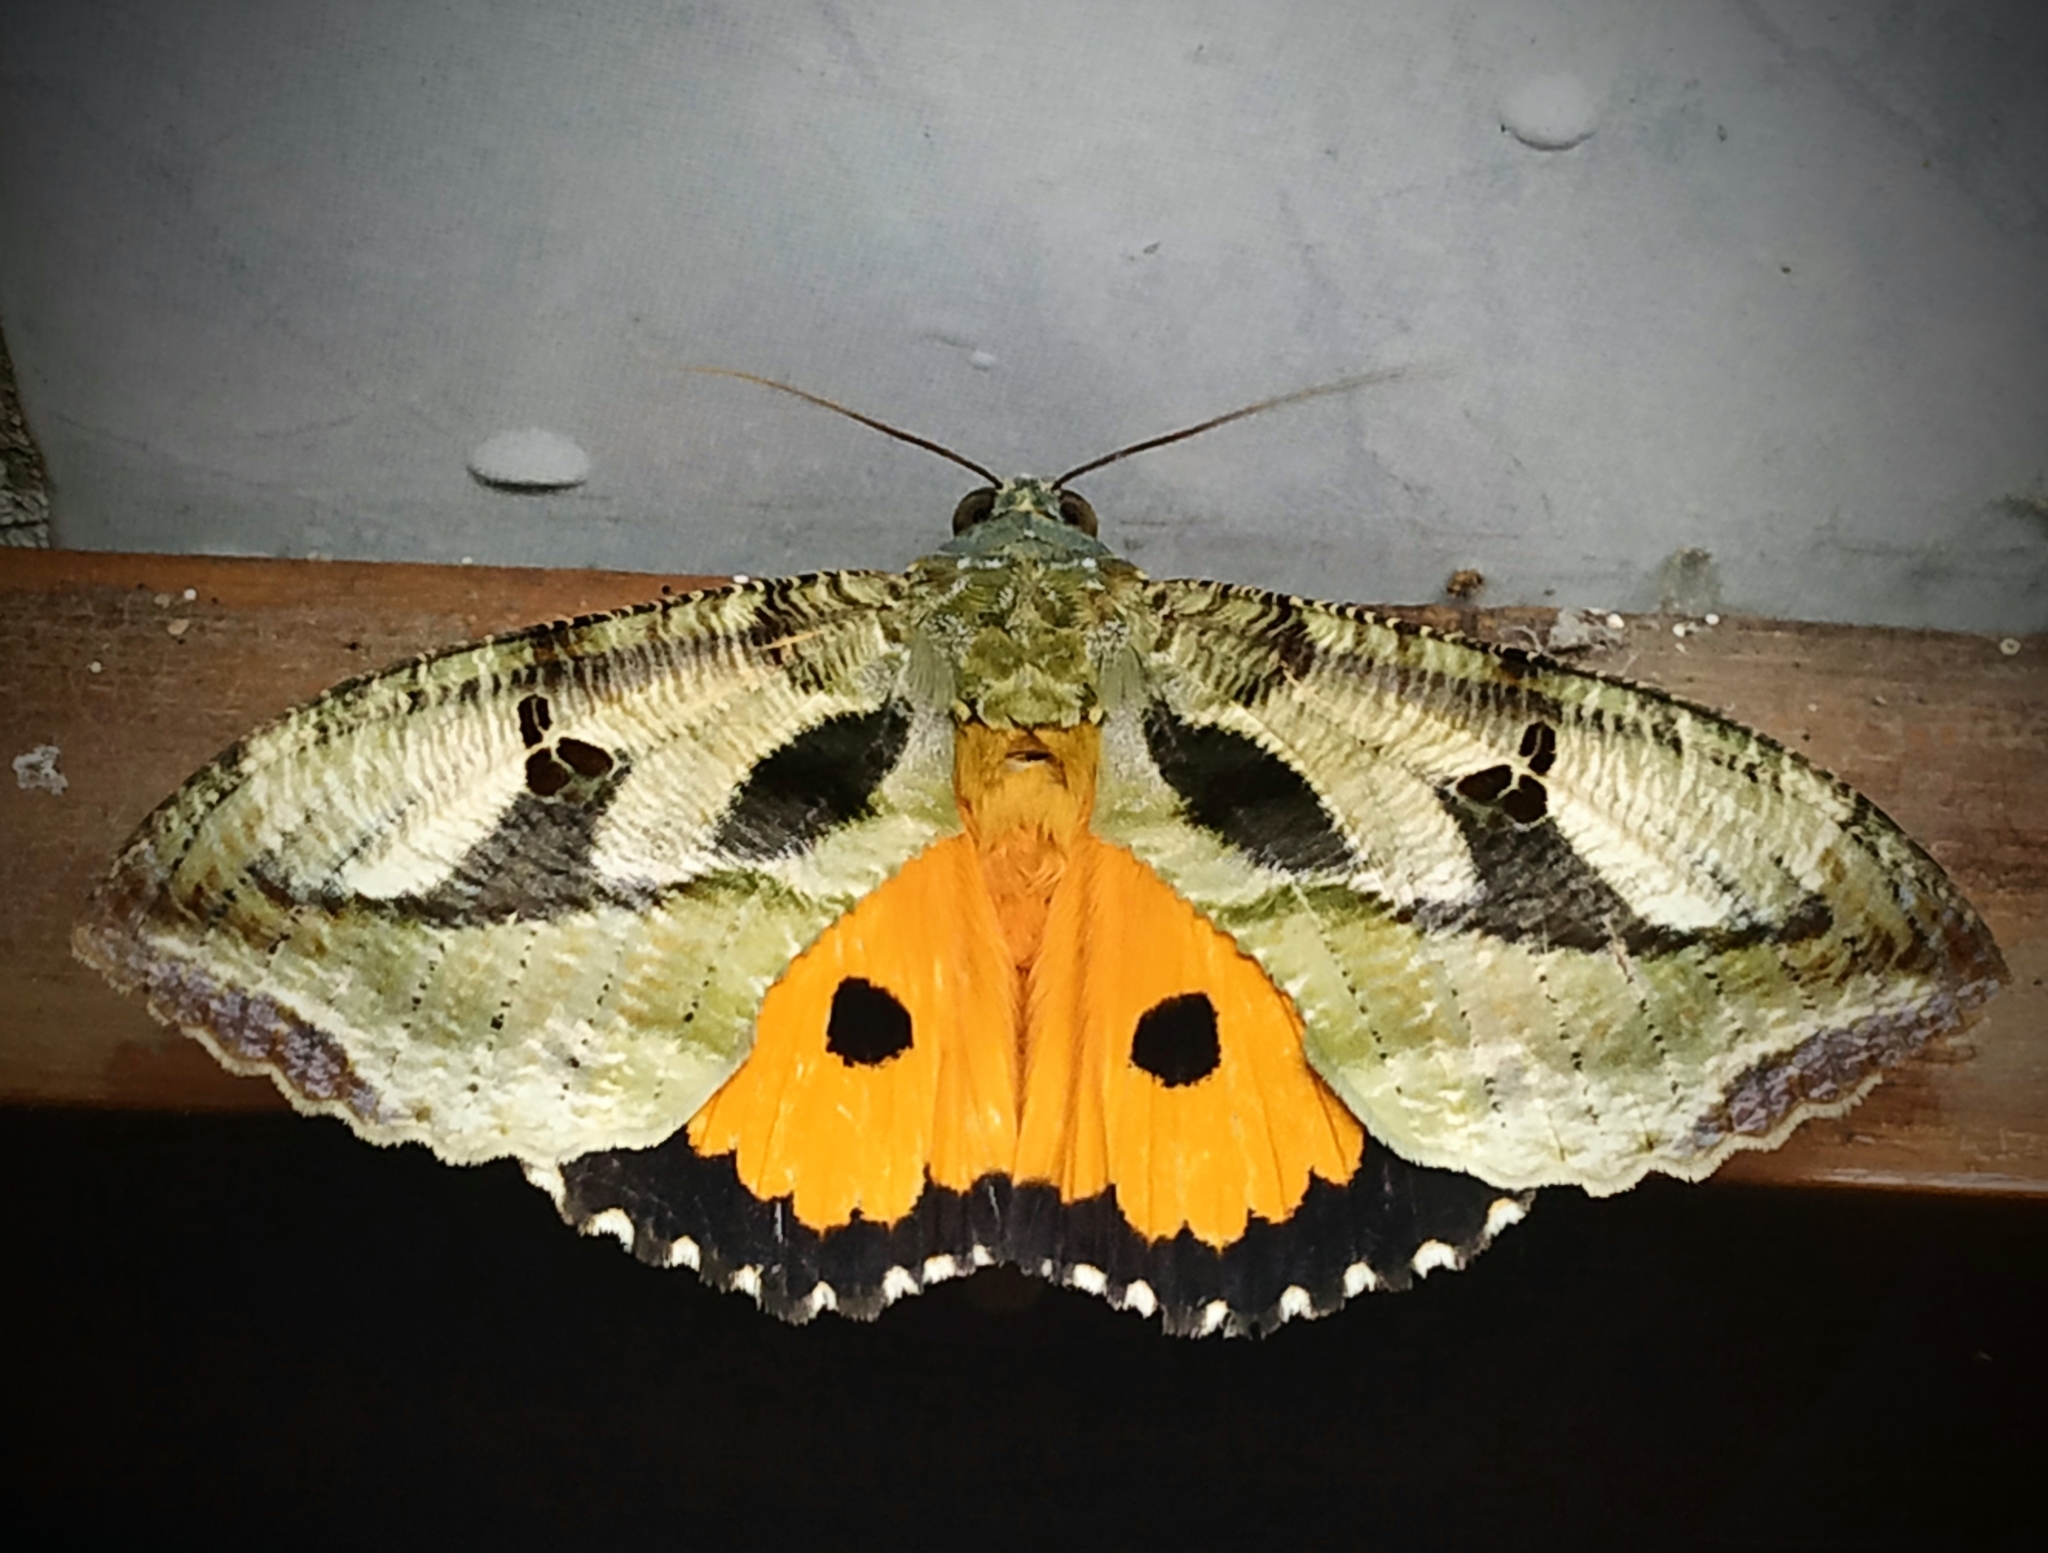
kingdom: Animalia
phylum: Arthropoda
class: Insecta
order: Lepidoptera
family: Erebidae
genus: Eudocima
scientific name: Eudocima materna
